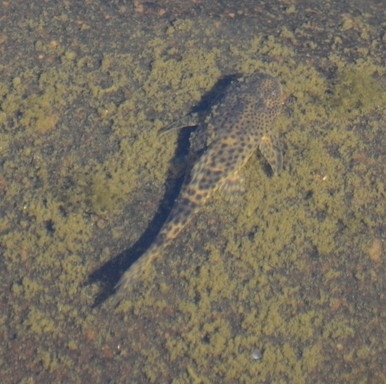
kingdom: Animalia
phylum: Chordata
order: Siluriformes
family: Loricariidae
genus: Hypostomus
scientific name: Hypostomus paranensis
